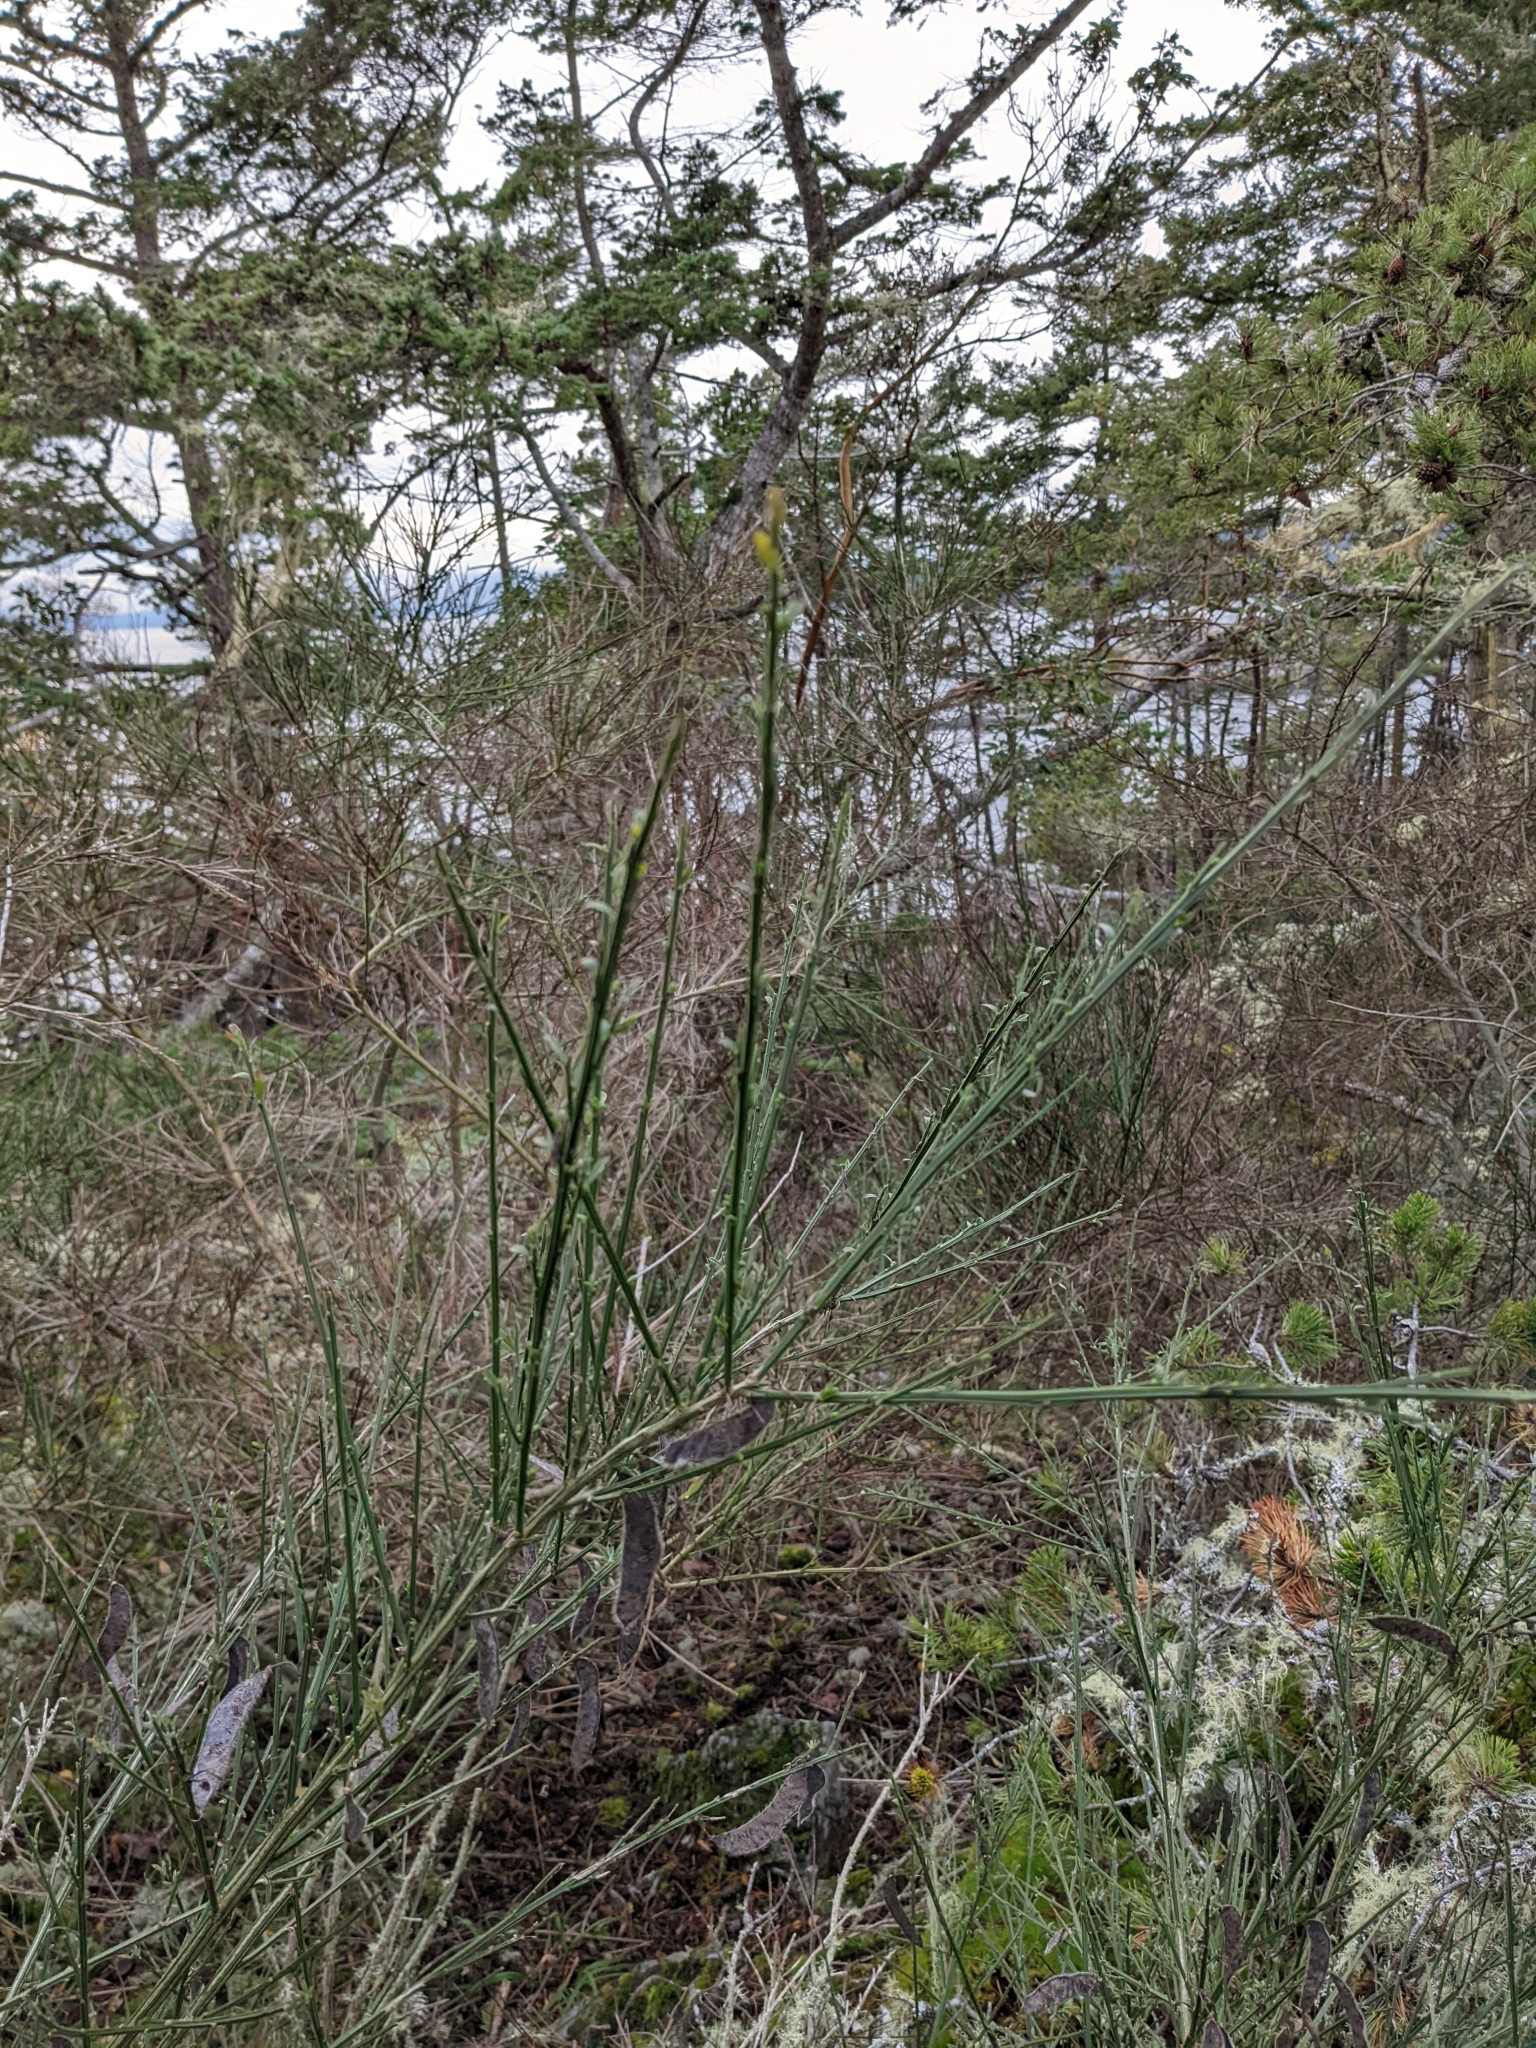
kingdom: Plantae
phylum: Tracheophyta
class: Magnoliopsida
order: Fabales
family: Fabaceae
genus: Cytisus
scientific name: Cytisus scoparius
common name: Scotch broom
